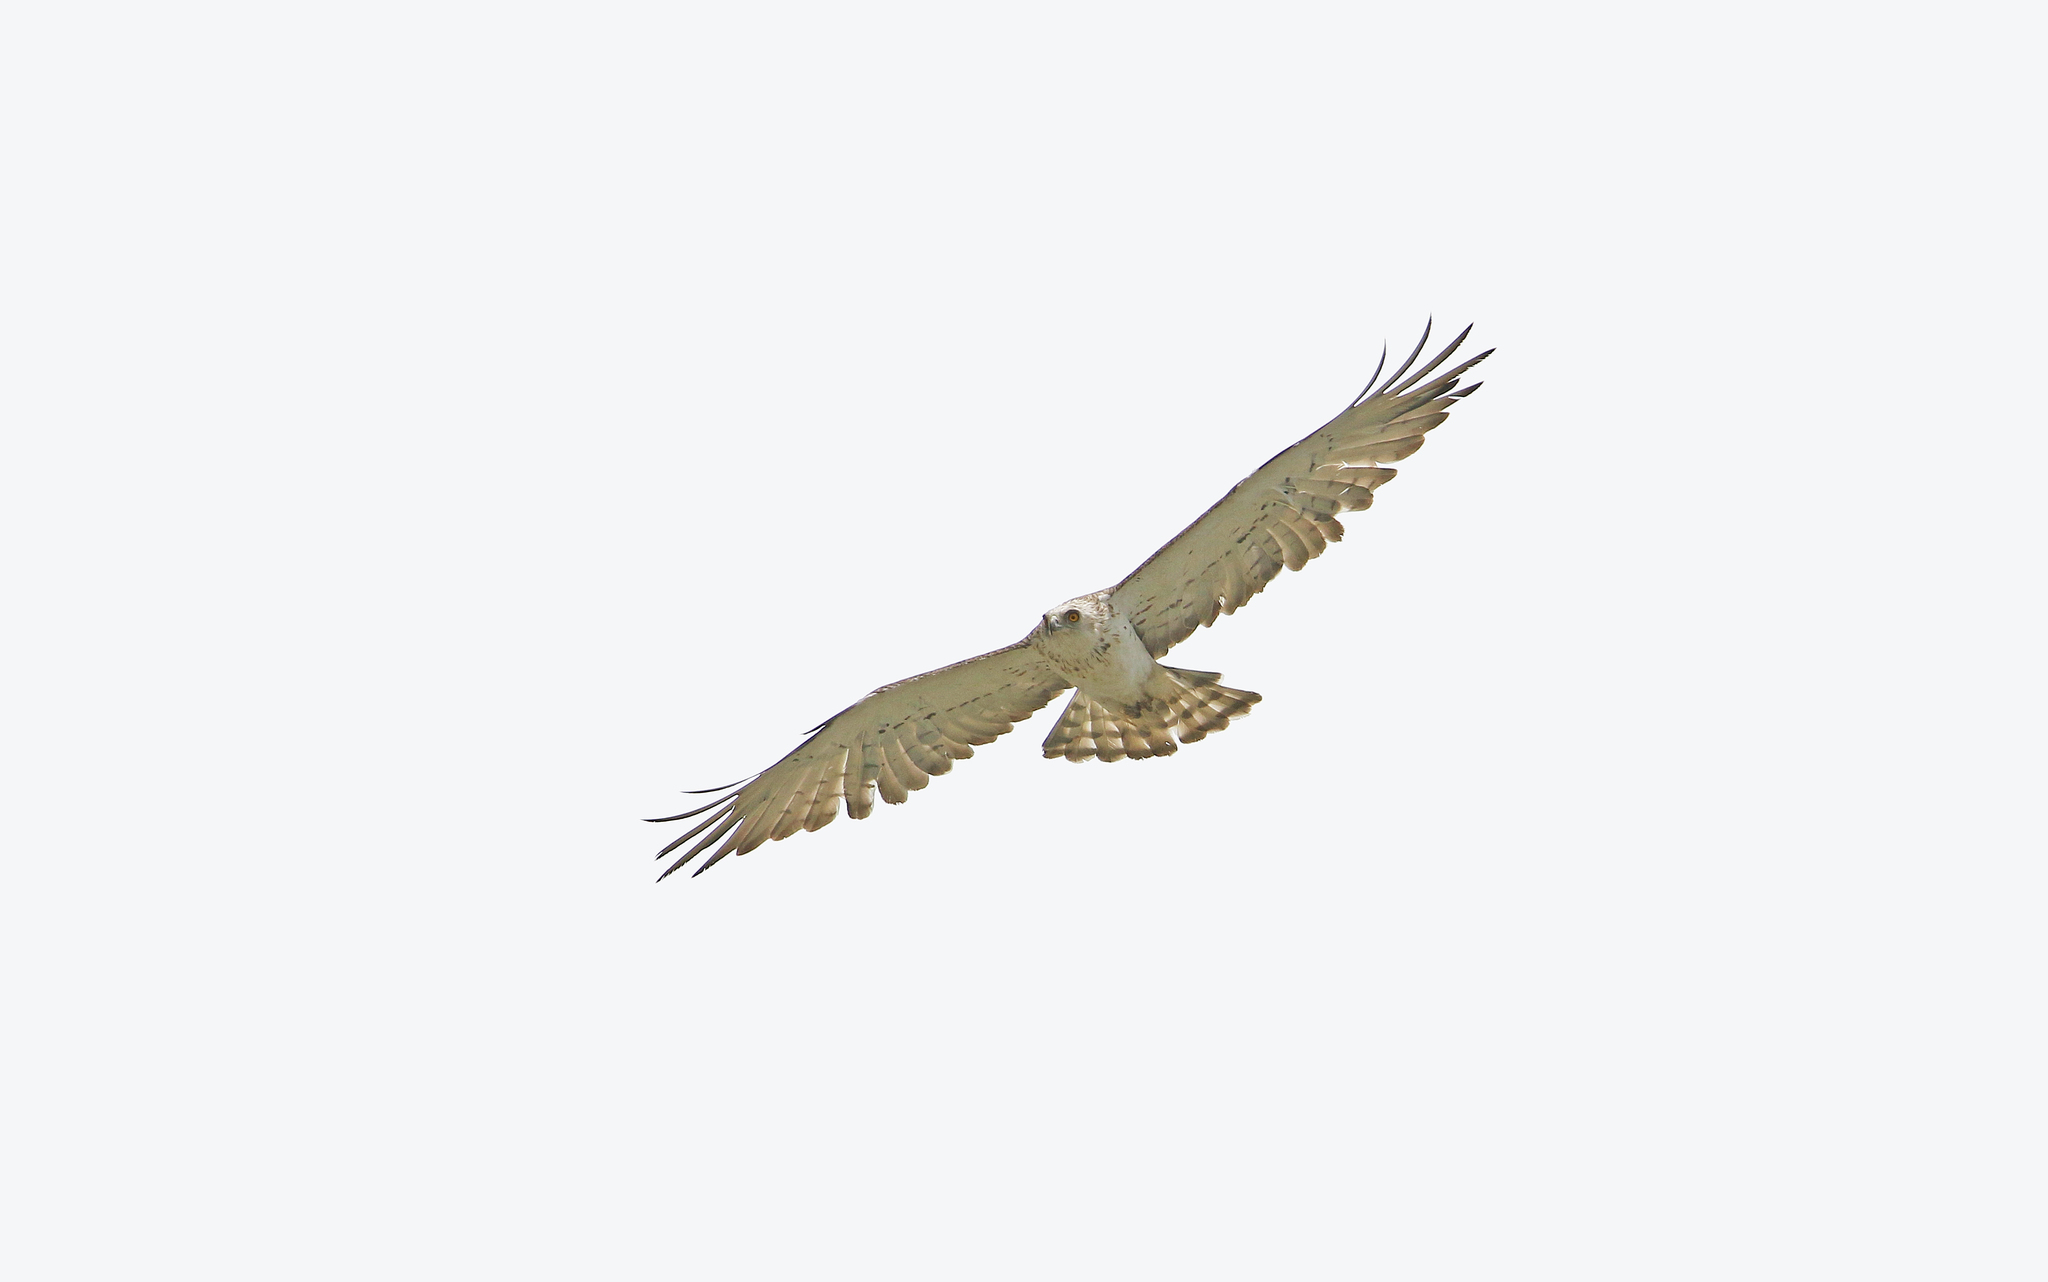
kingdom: Animalia
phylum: Chordata
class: Aves
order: Accipitriformes
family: Accipitridae
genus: Circaetus
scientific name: Circaetus gallicus
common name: Short-toed snake eagle
